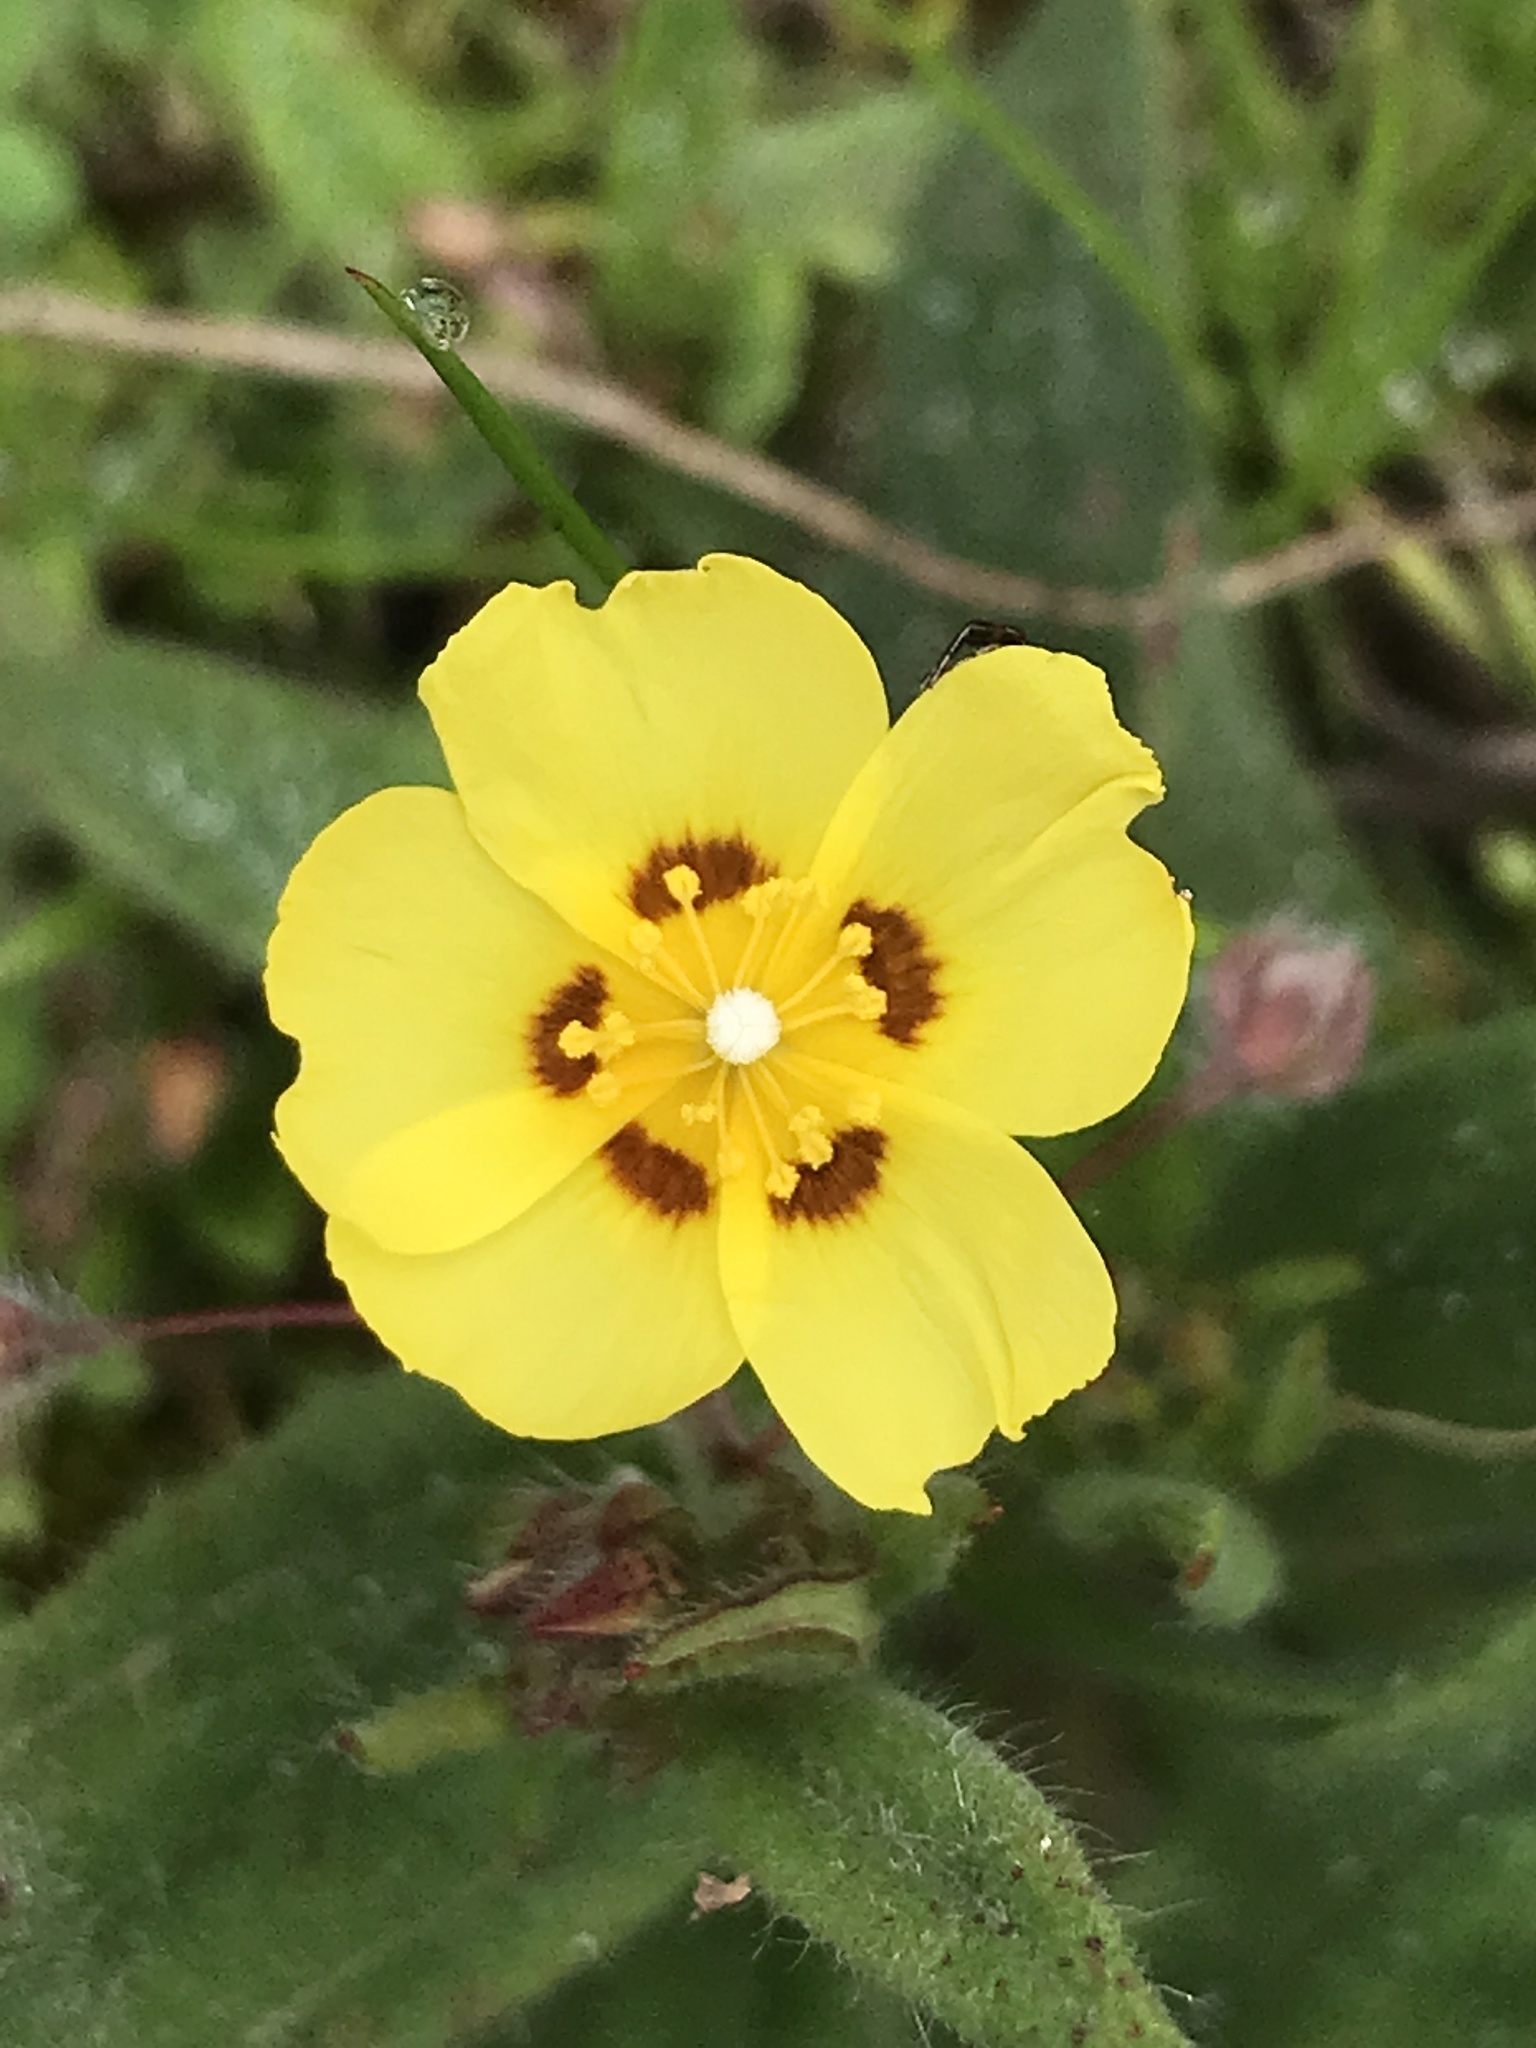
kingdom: Plantae
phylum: Tracheophyta
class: Magnoliopsida
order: Malvales
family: Cistaceae
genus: Tuberaria
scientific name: Tuberaria guttata
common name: Spotted rock-rose
